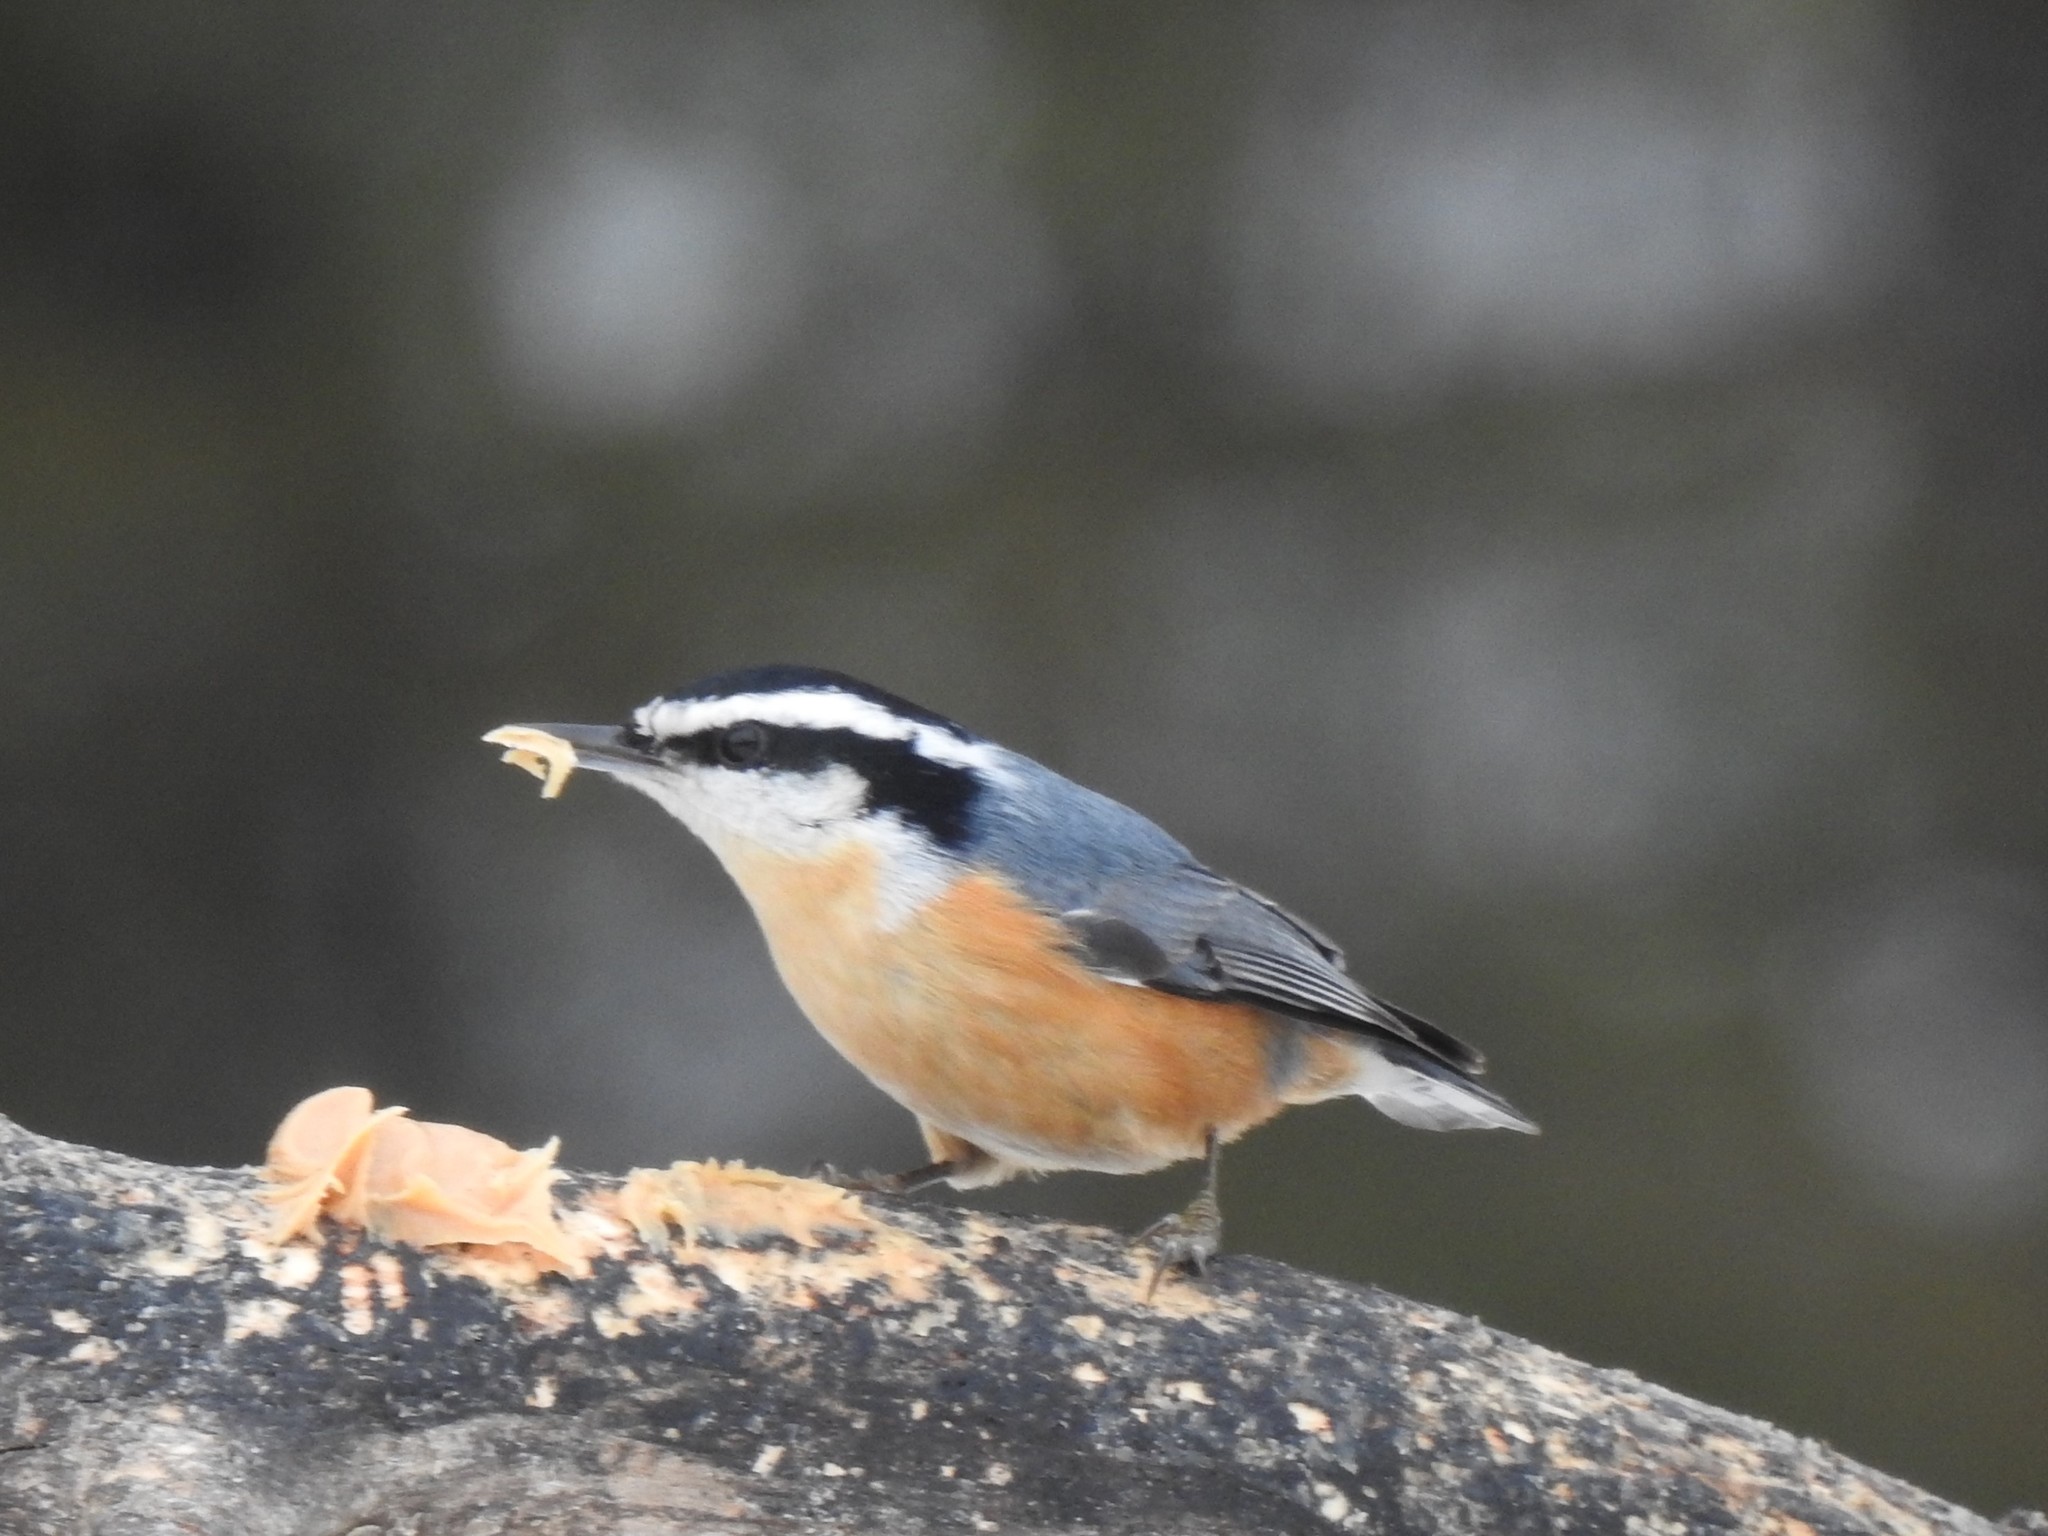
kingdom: Animalia
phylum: Chordata
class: Aves
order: Passeriformes
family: Sittidae
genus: Sitta
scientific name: Sitta canadensis
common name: Red-breasted nuthatch
